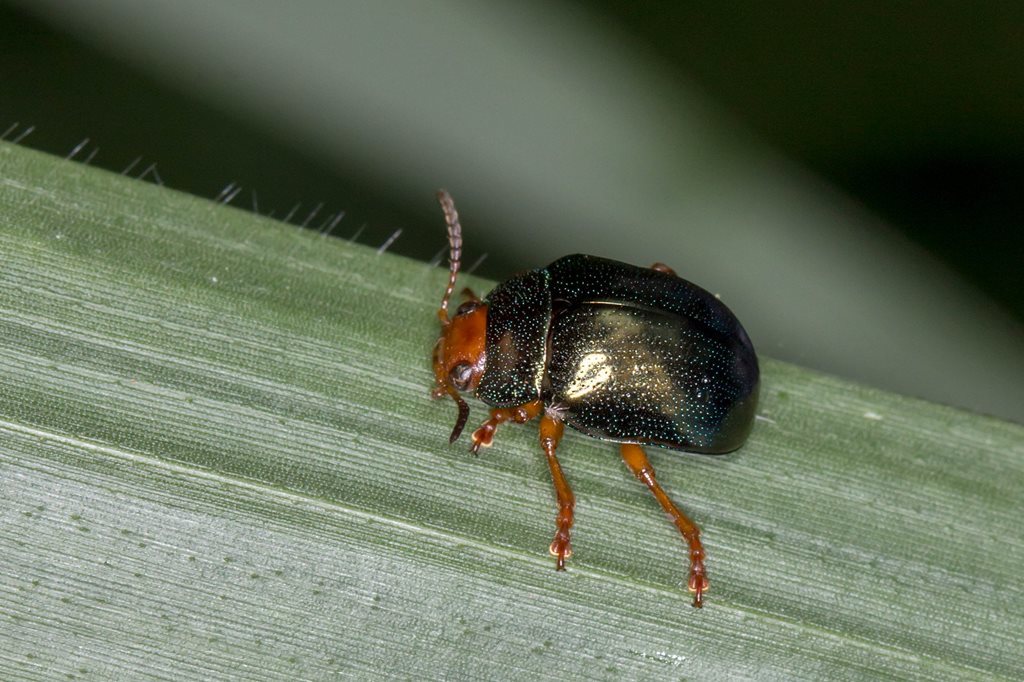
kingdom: Animalia
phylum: Arthropoda
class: Insecta
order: Coleoptera
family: Chrysomelidae
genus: Calomela
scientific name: Calomela
